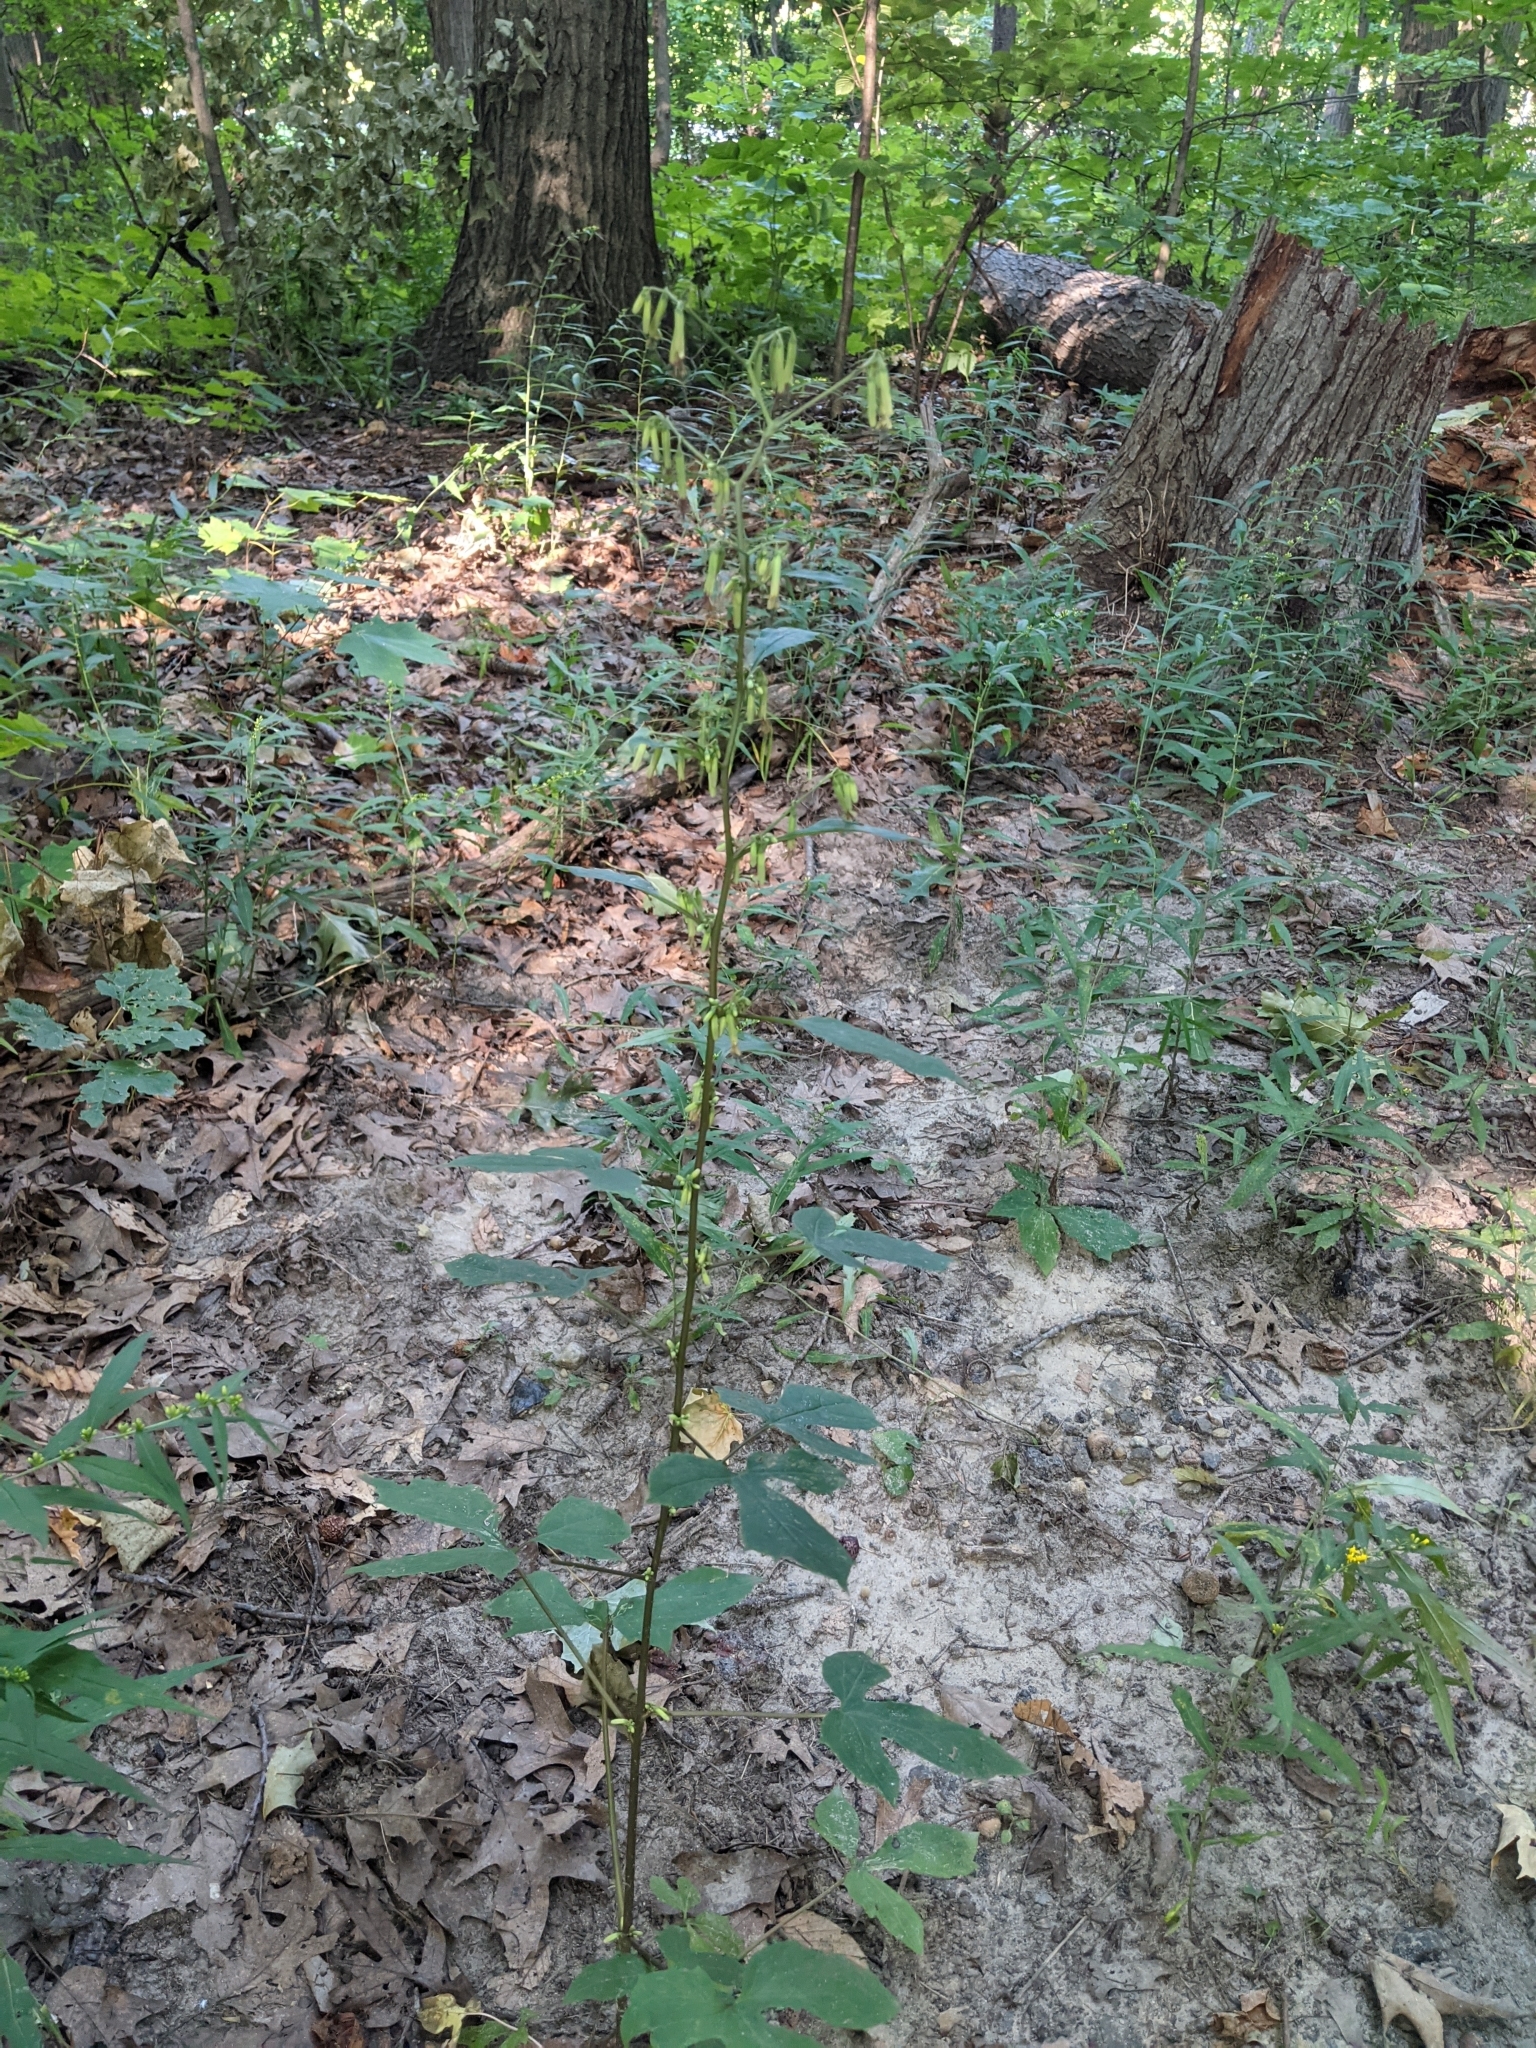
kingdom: Plantae
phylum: Tracheophyta
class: Magnoliopsida
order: Asterales
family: Asteraceae
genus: Nabalus
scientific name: Nabalus altissima
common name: Tall rattlesnakeroot
